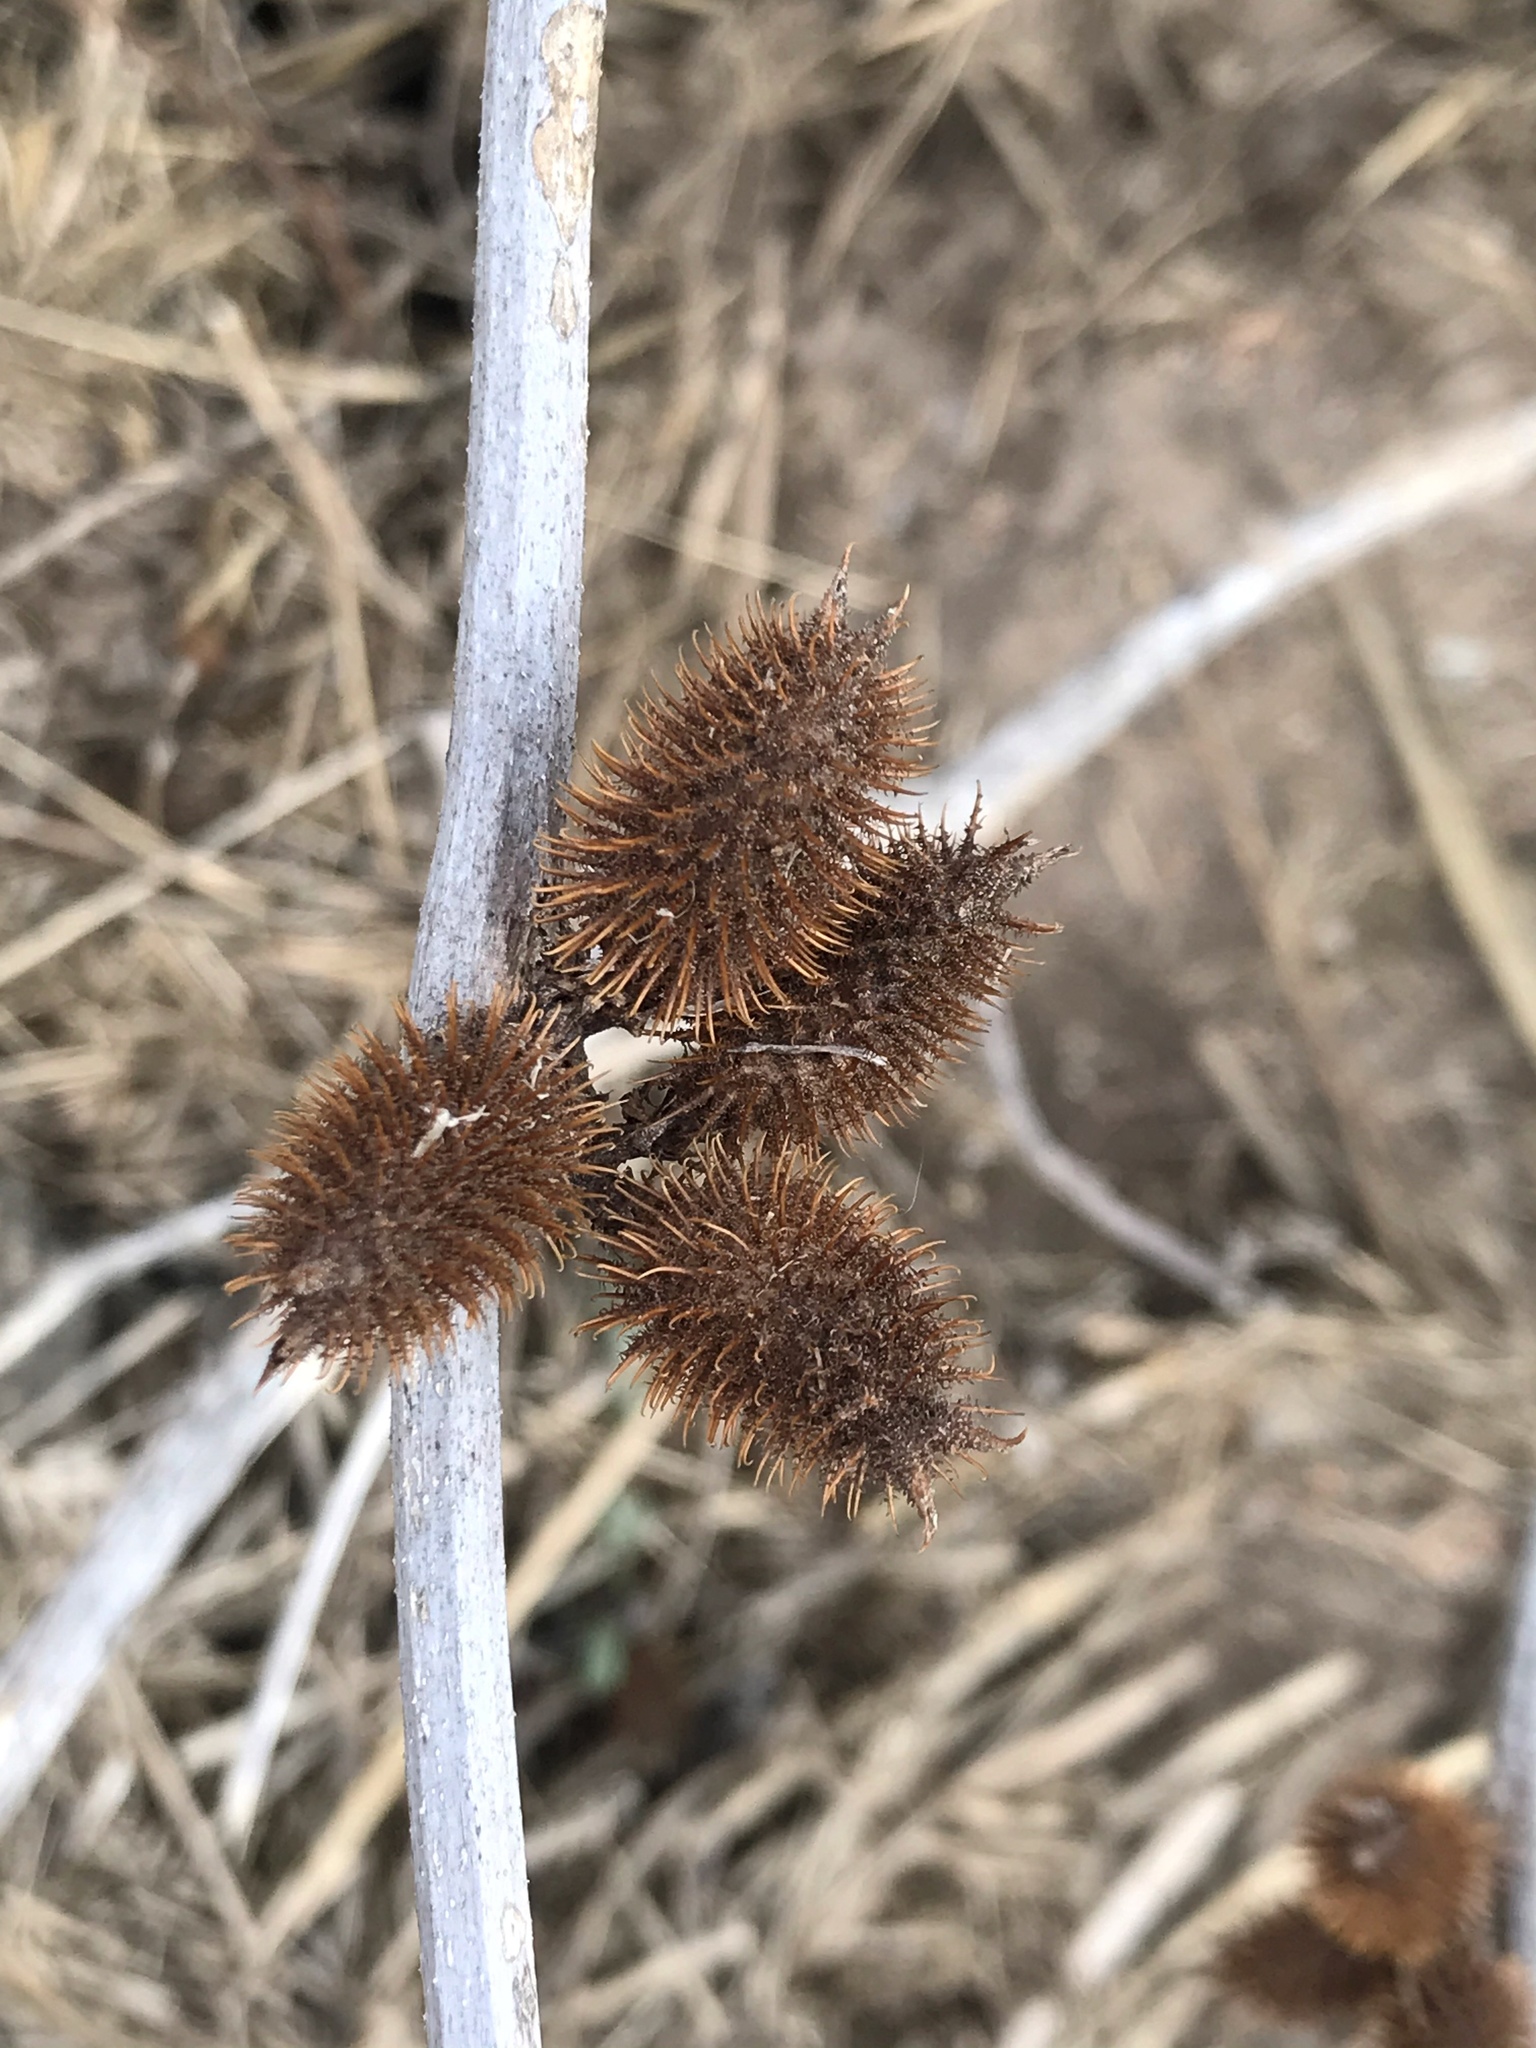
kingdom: Plantae
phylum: Tracheophyta
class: Magnoliopsida
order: Asterales
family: Asteraceae
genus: Xanthium
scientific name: Xanthium strumarium
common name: Rough cocklebur
